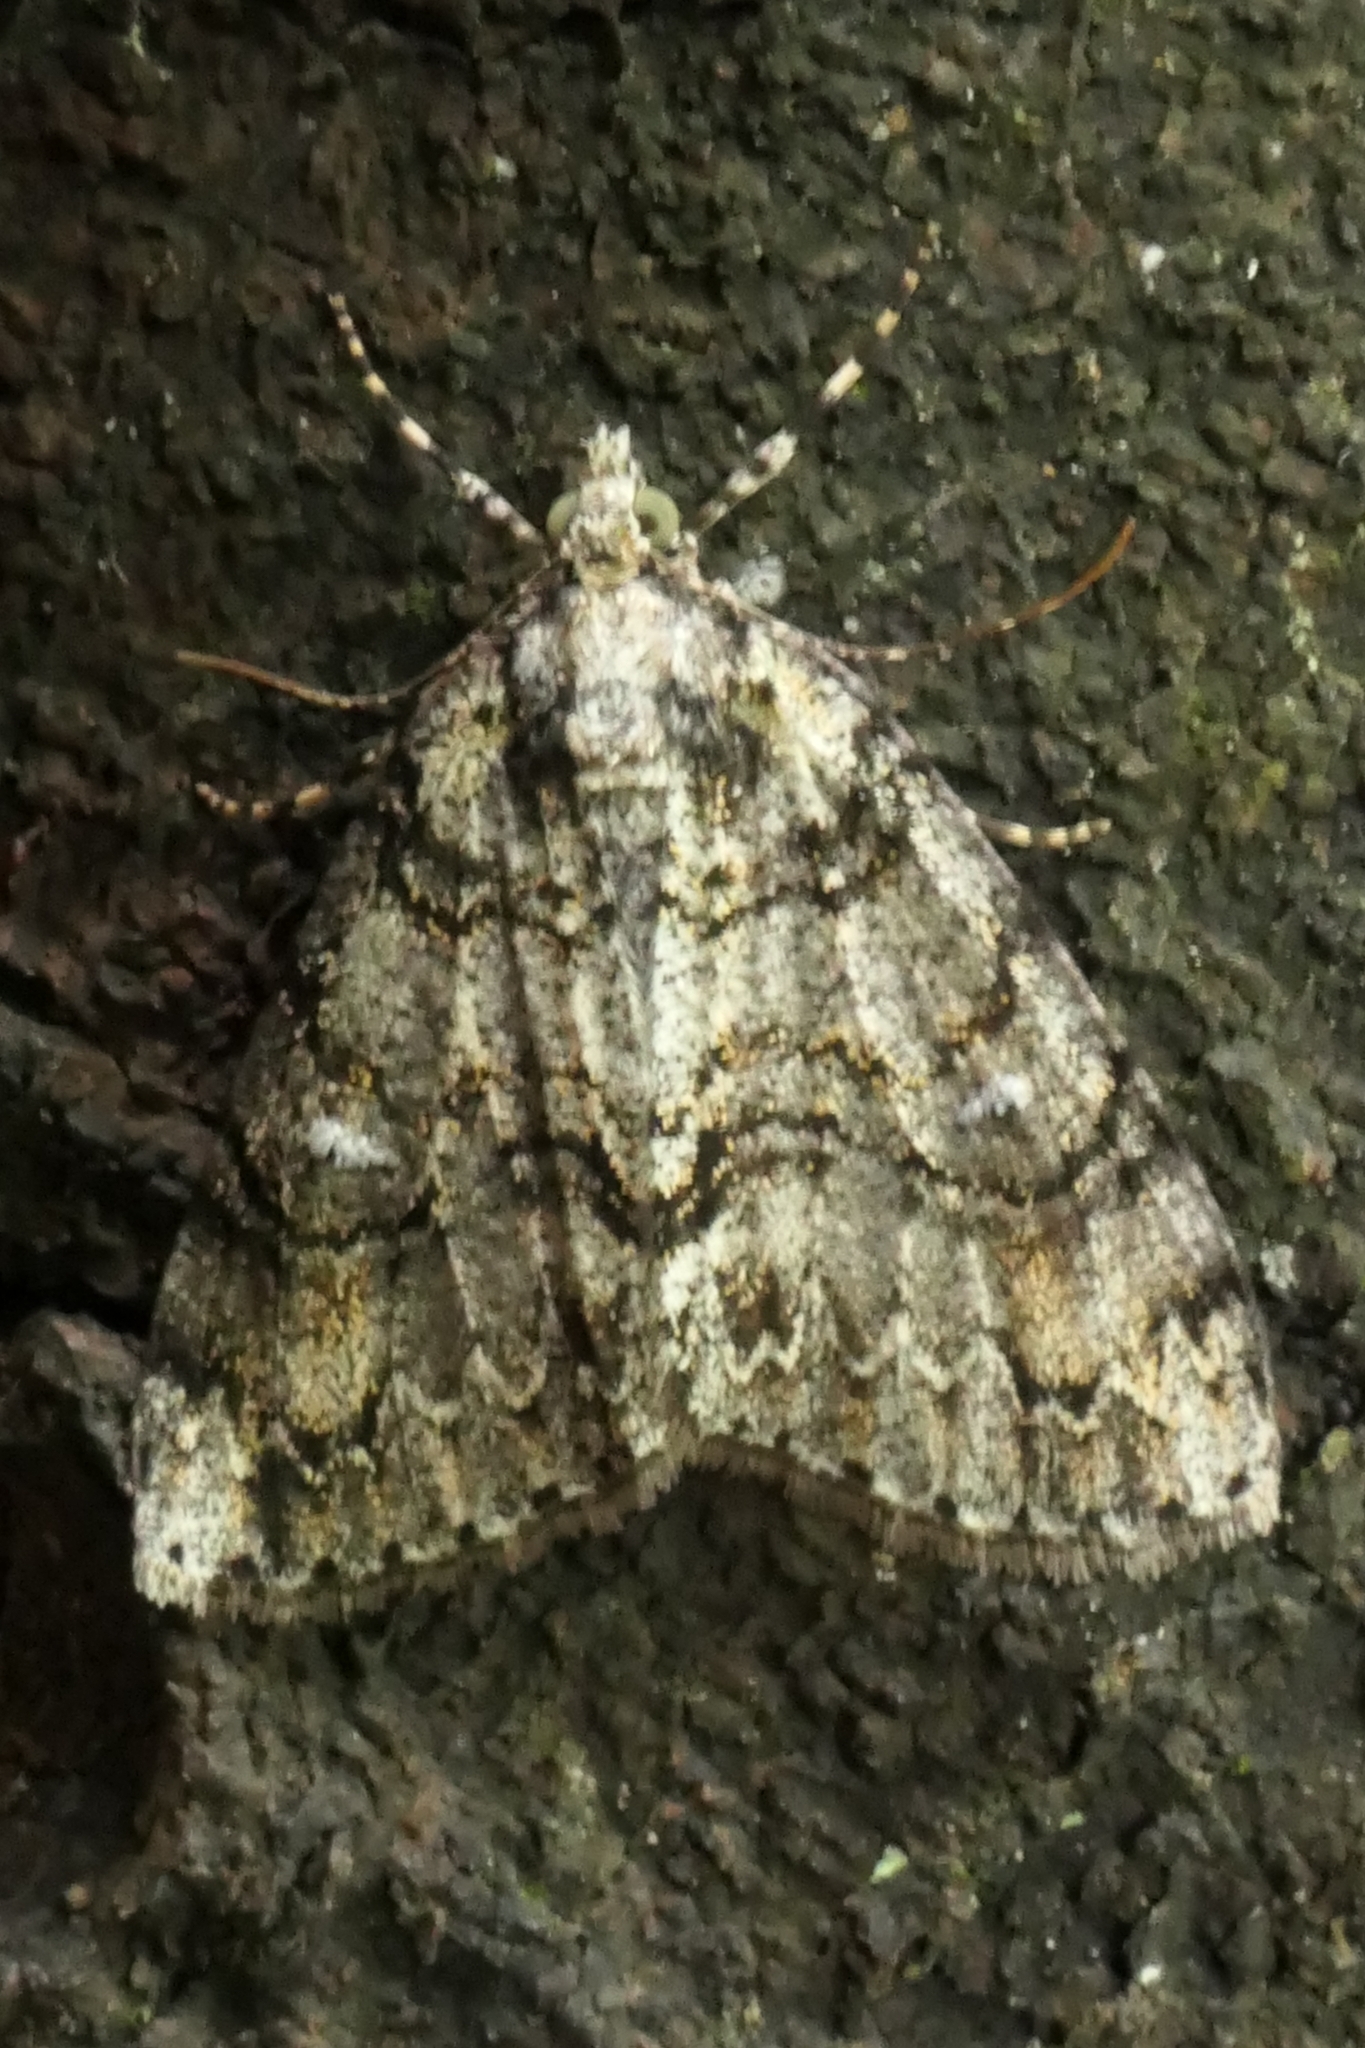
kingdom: Animalia
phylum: Arthropoda
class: Insecta
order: Lepidoptera
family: Geometridae
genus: Pseudocoremia
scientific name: Pseudocoremia suavis
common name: Common forest looper
